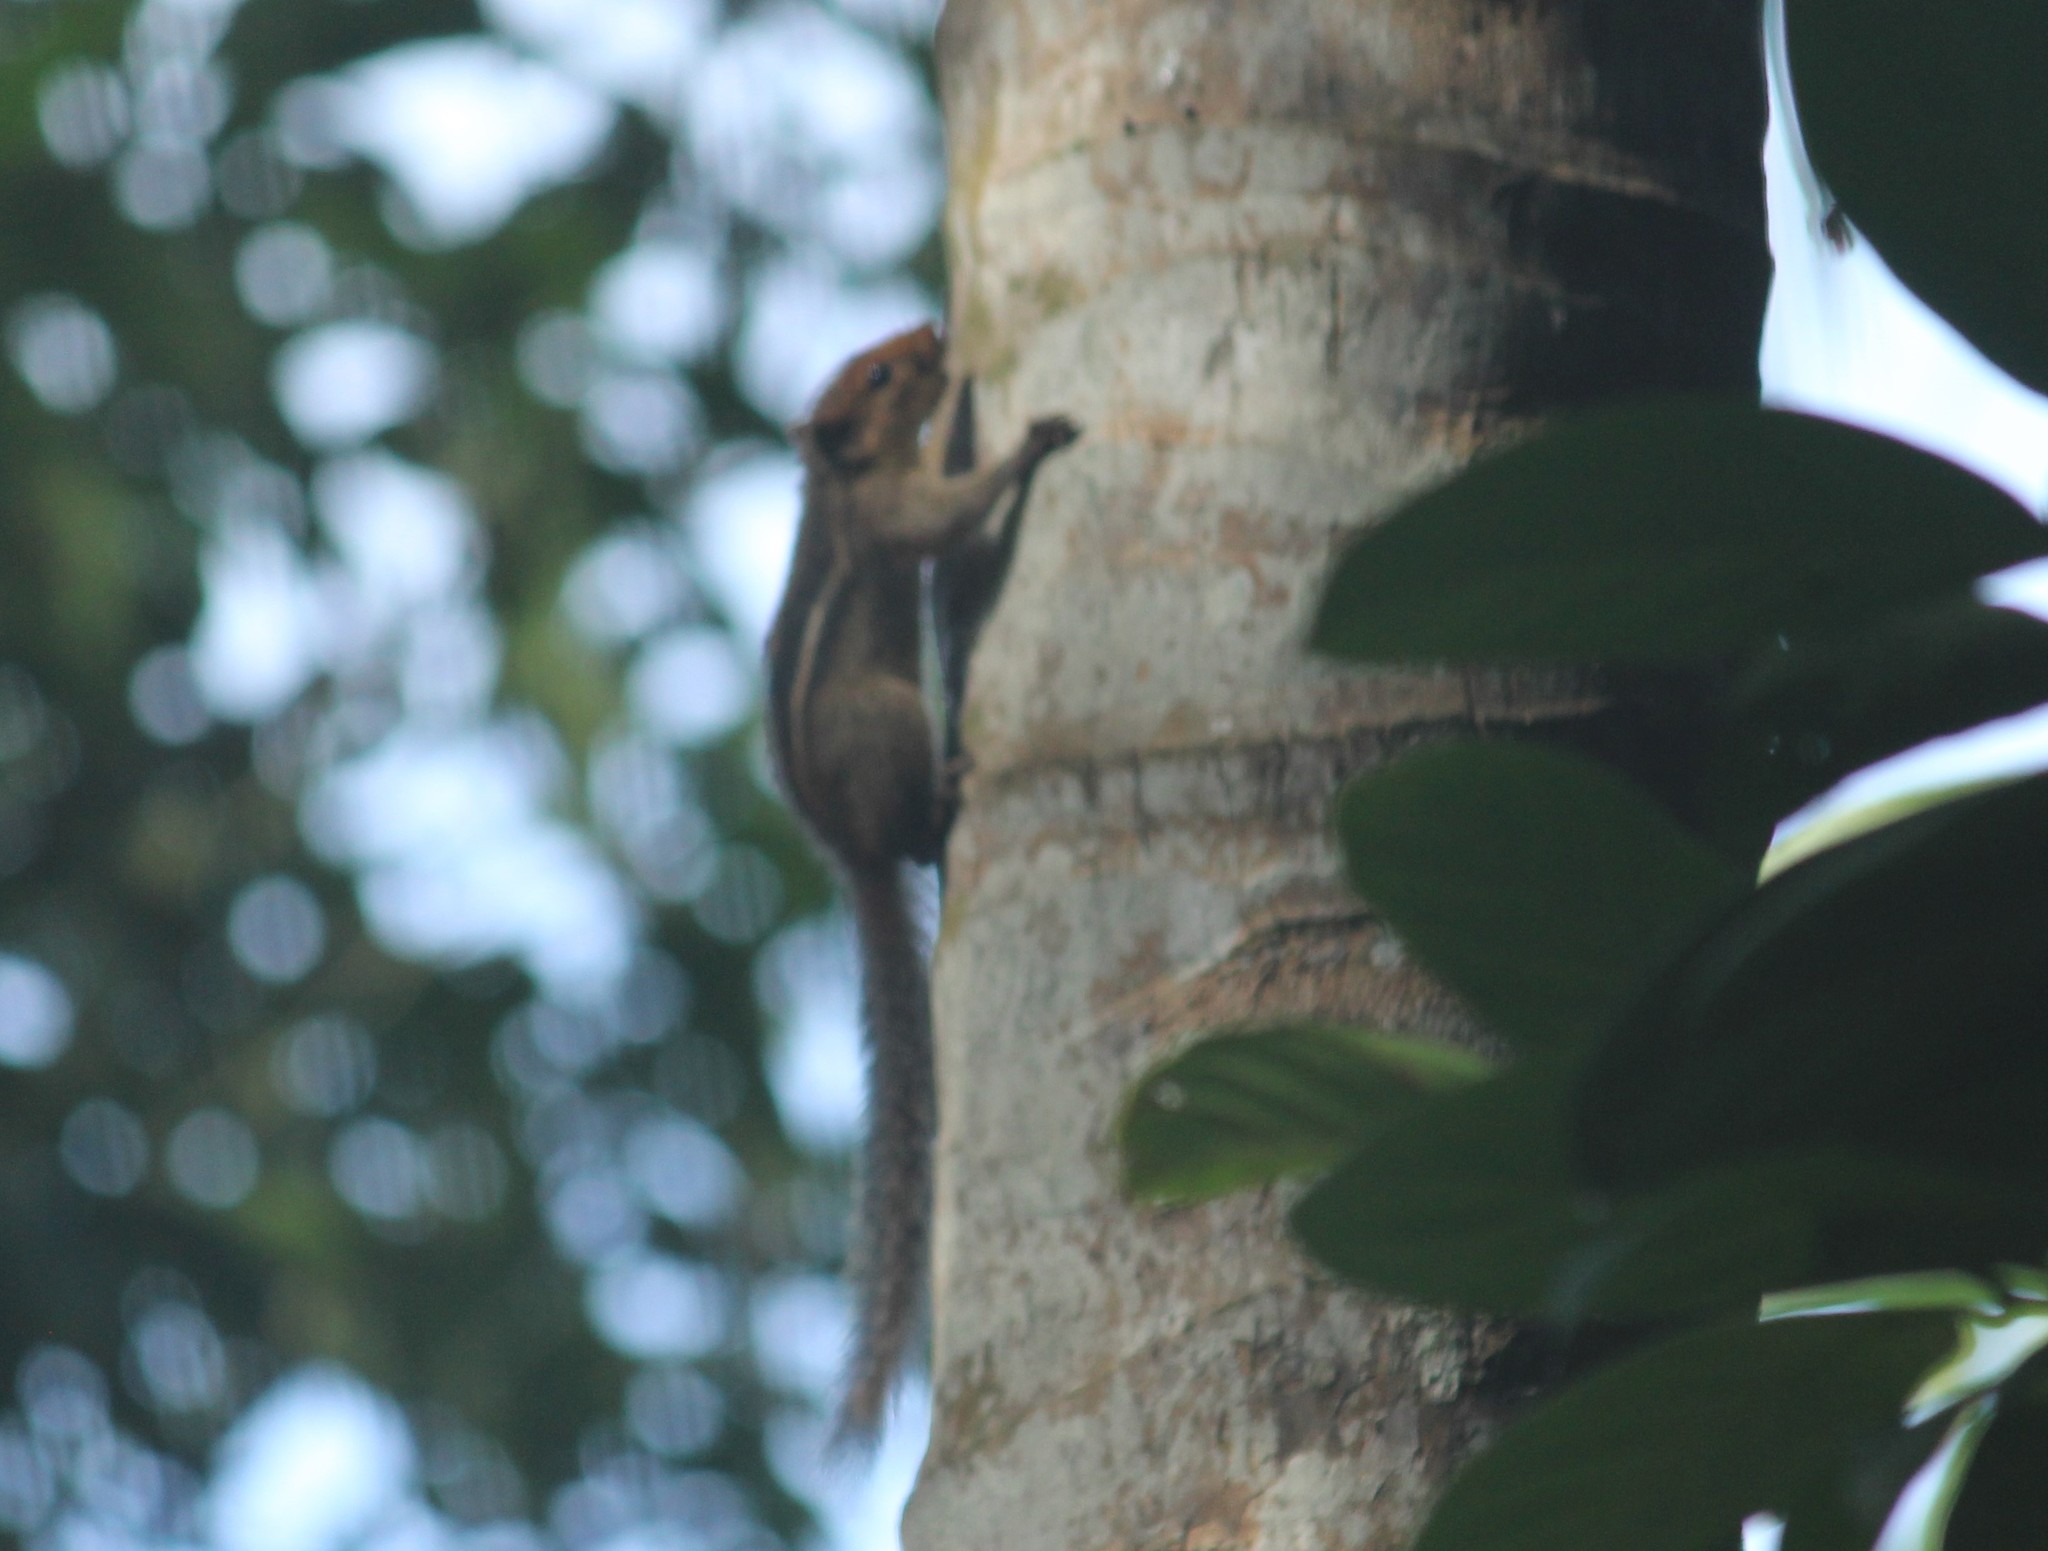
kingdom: Animalia
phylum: Chordata
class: Mammalia
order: Rodentia
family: Sciuridae
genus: Funambulus
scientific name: Funambulus tristriatus
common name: Jungle palm squirrel
